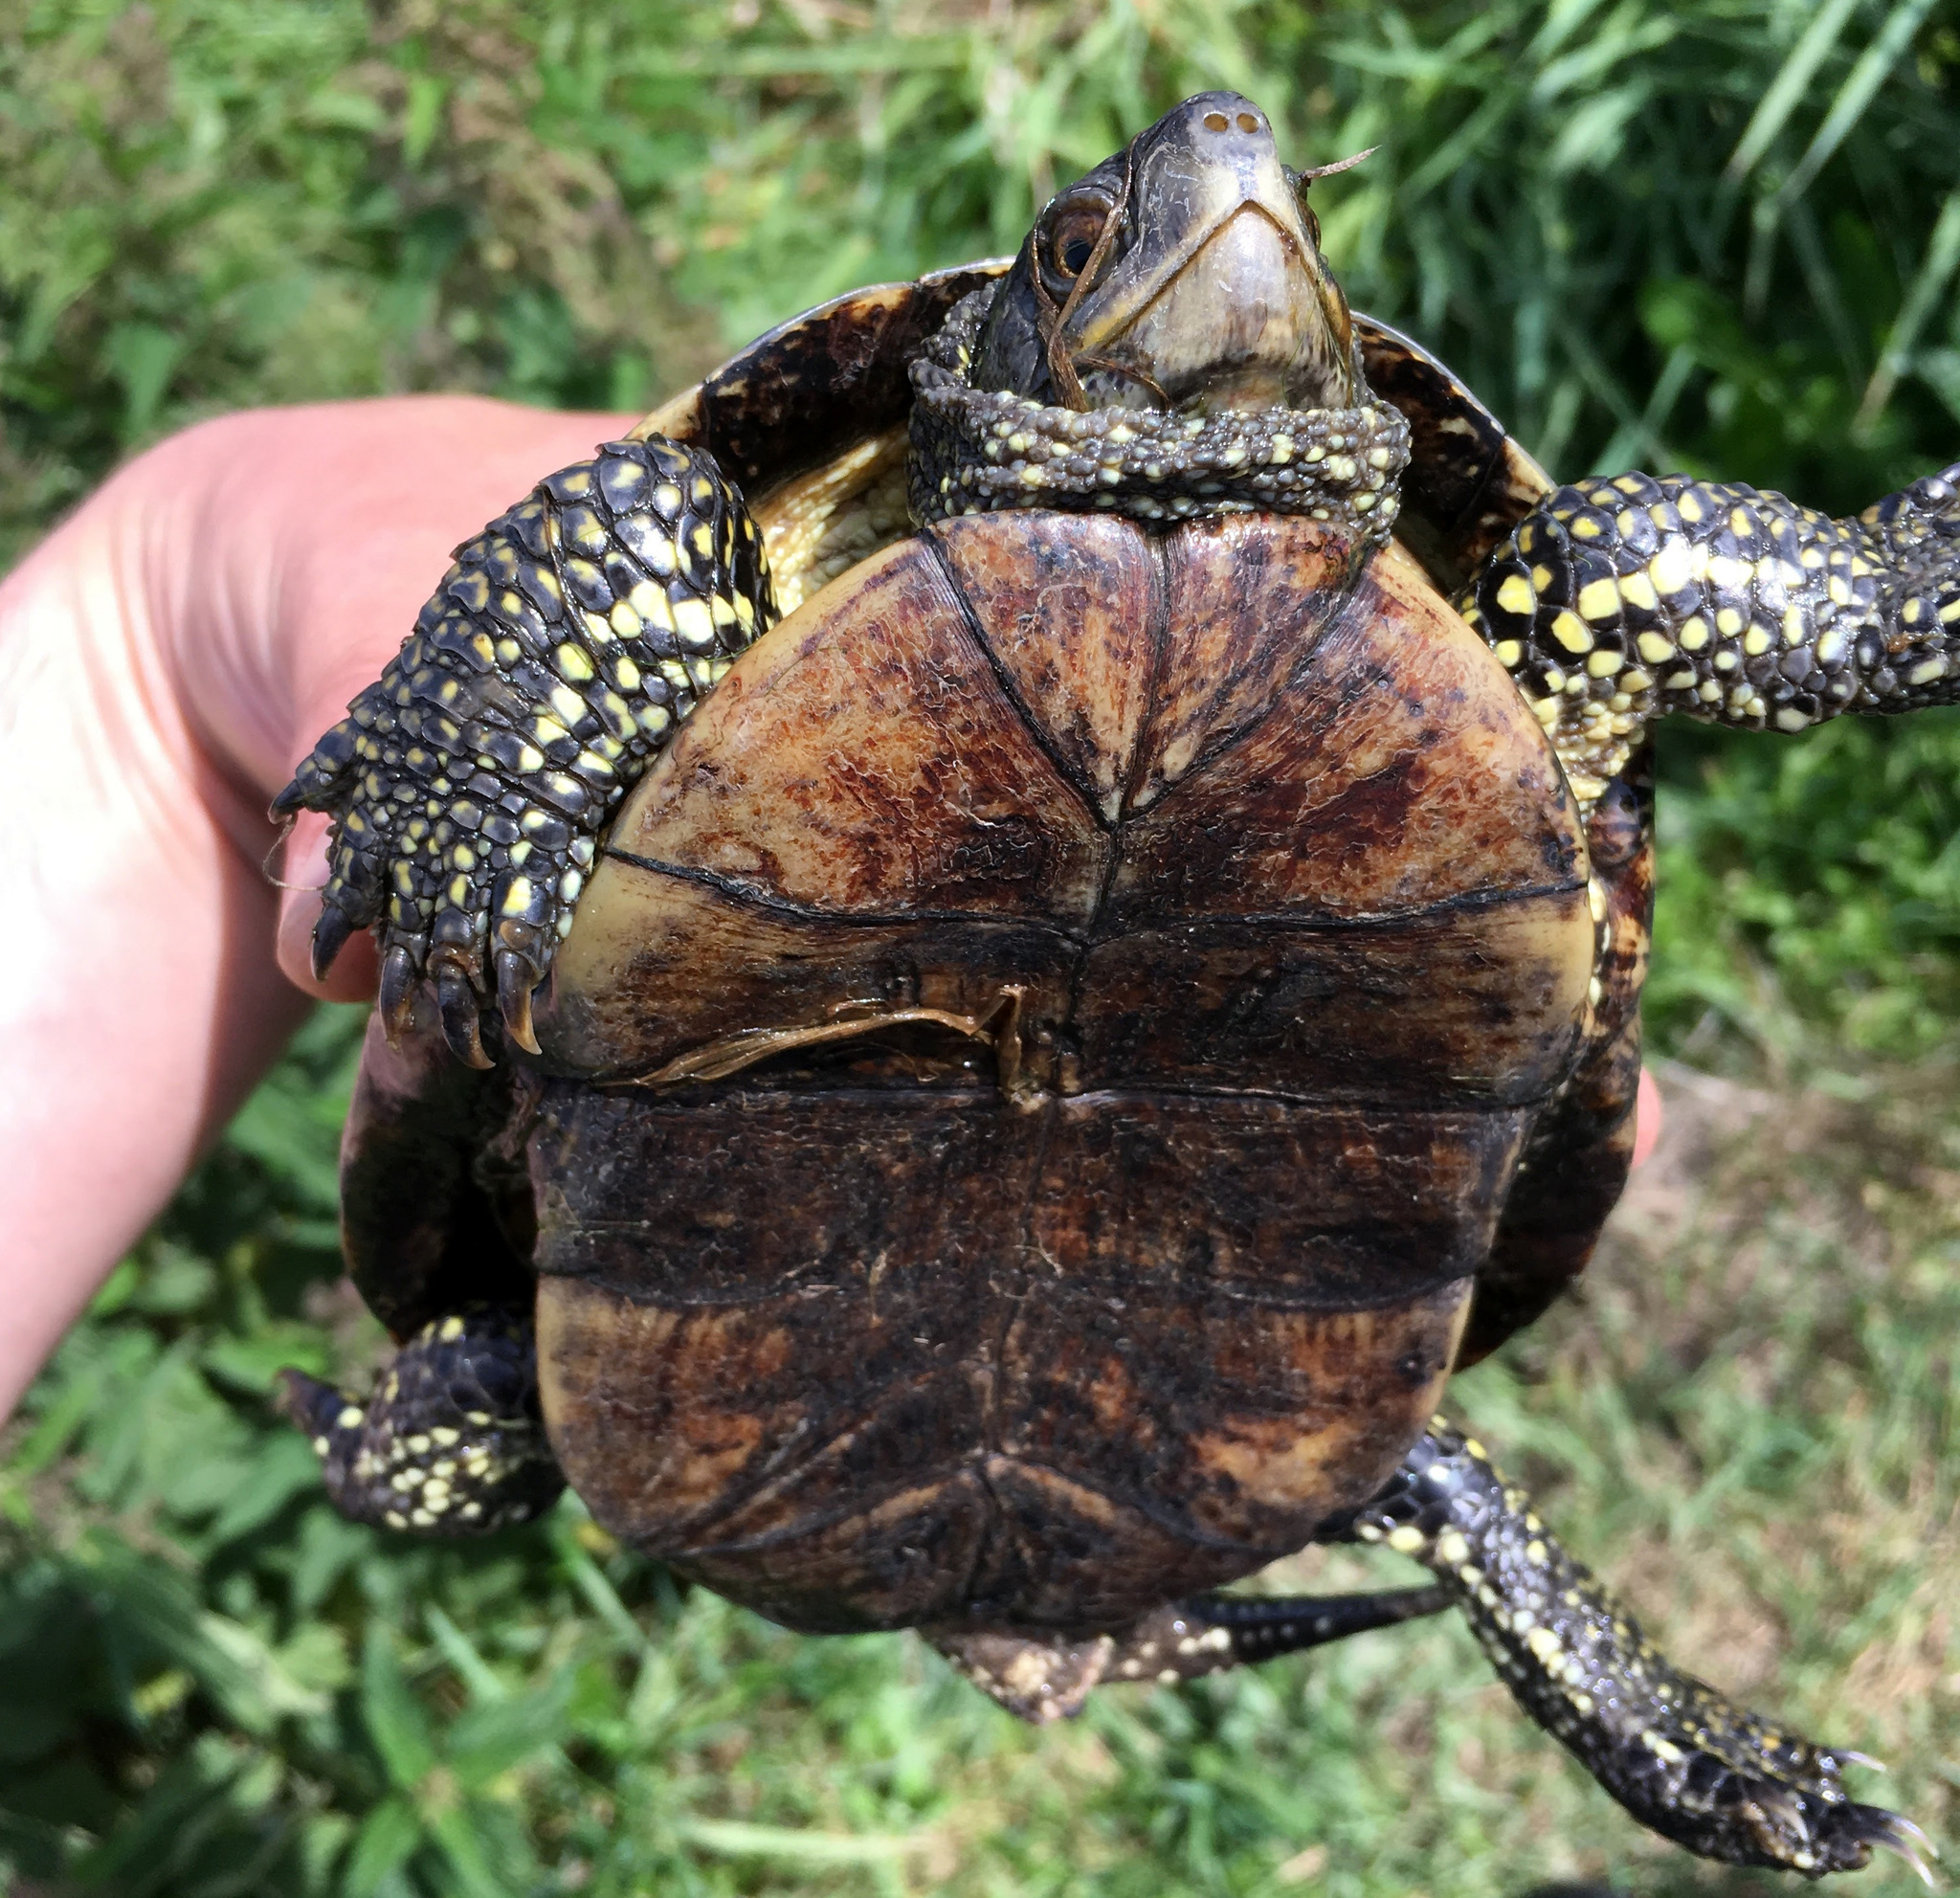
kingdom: Animalia
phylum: Chordata
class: Testudines
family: Emydidae
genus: Emys
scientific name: Emys orbicularis
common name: European pond turtle
